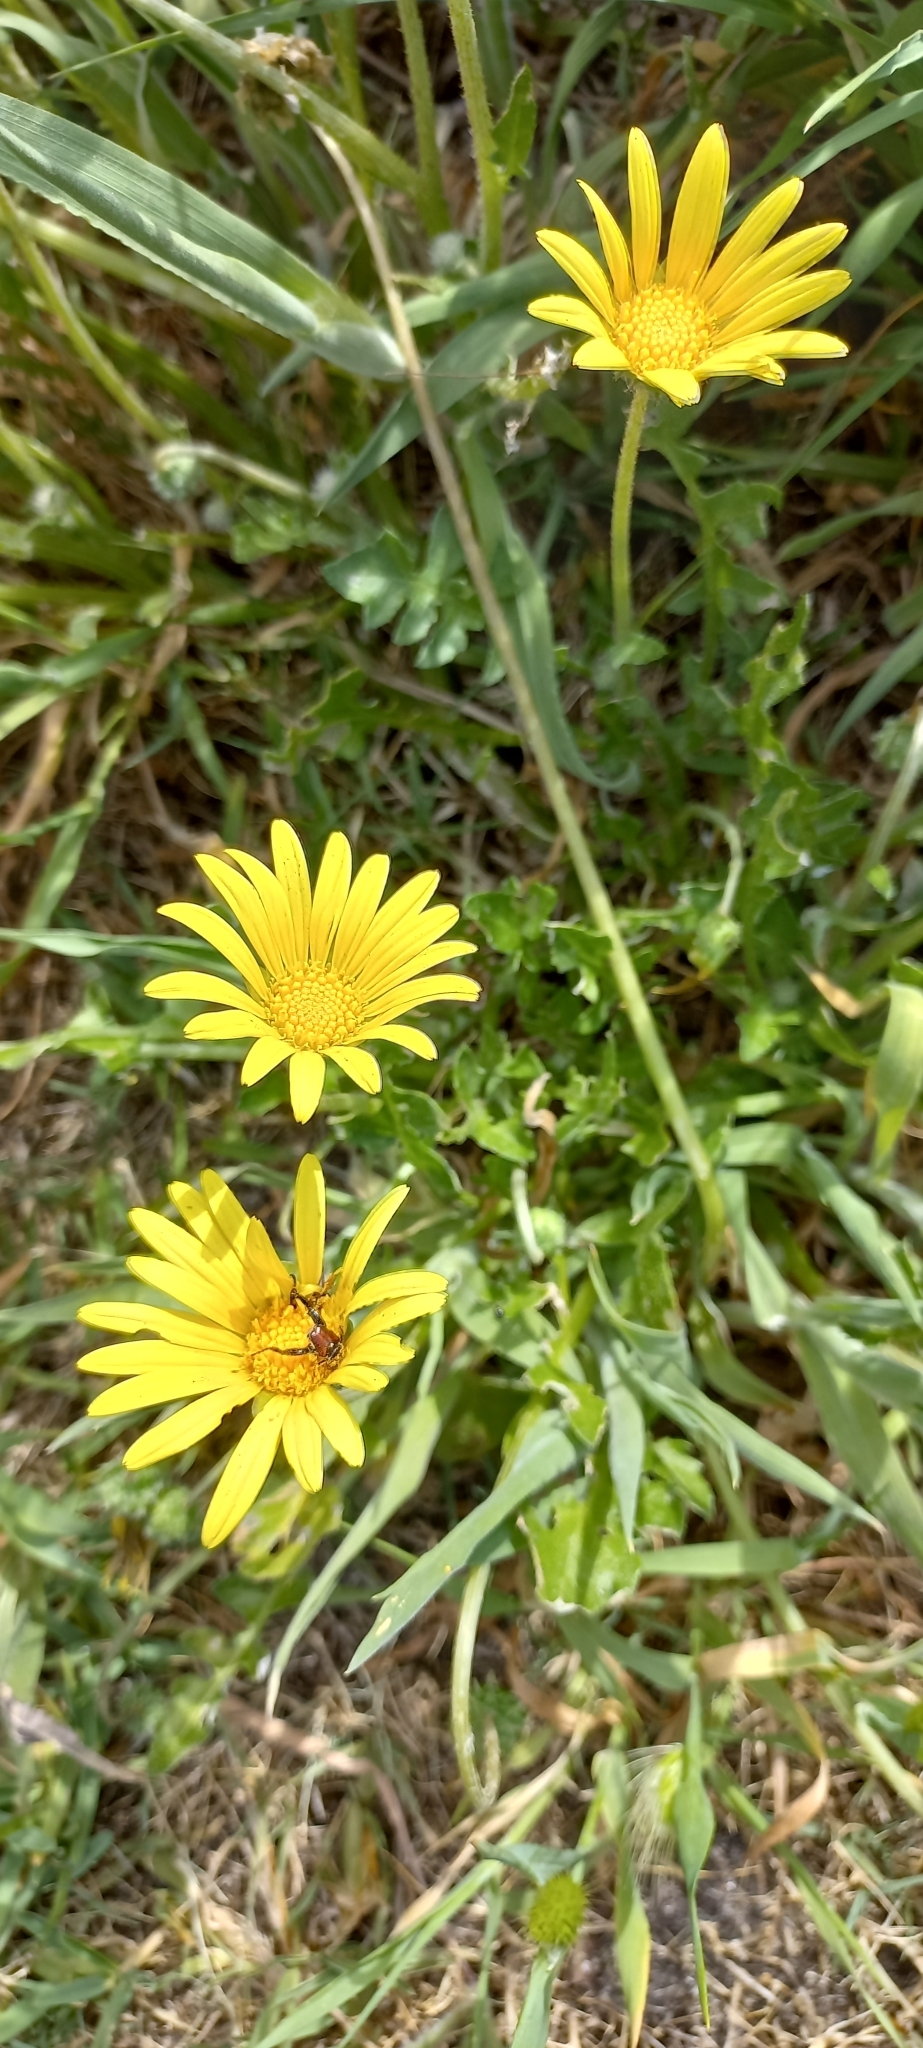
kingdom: Plantae
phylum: Tracheophyta
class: Magnoliopsida
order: Asterales
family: Asteraceae
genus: Arctotis
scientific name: Arctotis scabra
